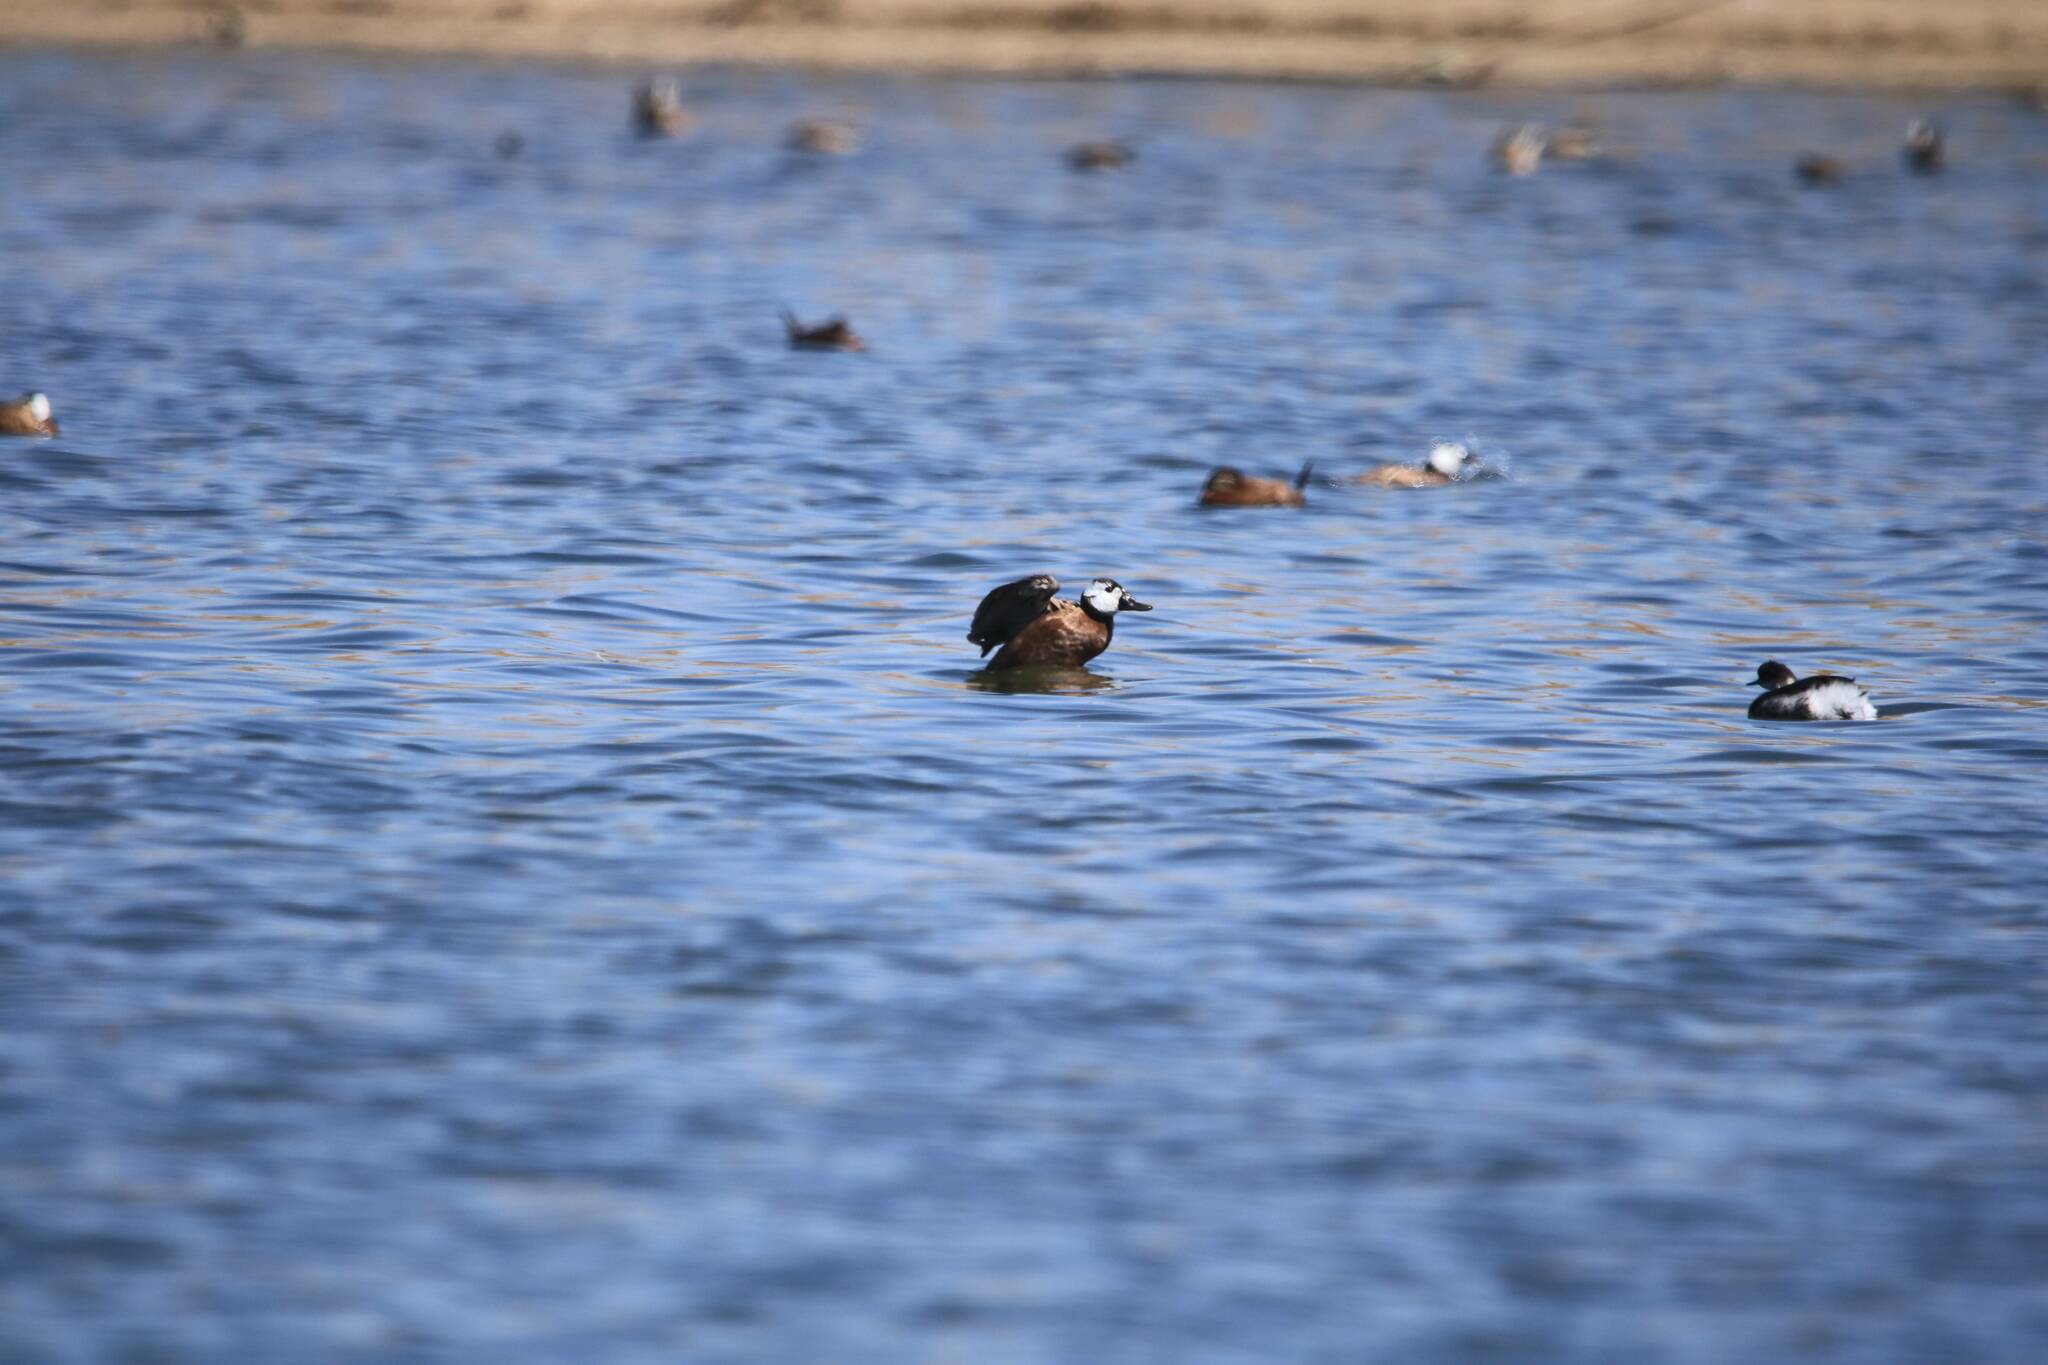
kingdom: Animalia
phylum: Chordata
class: Aves
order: Anseriformes
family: Anatidae
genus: Oxyura
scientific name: Oxyura leucocephala
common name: White-headed duck
